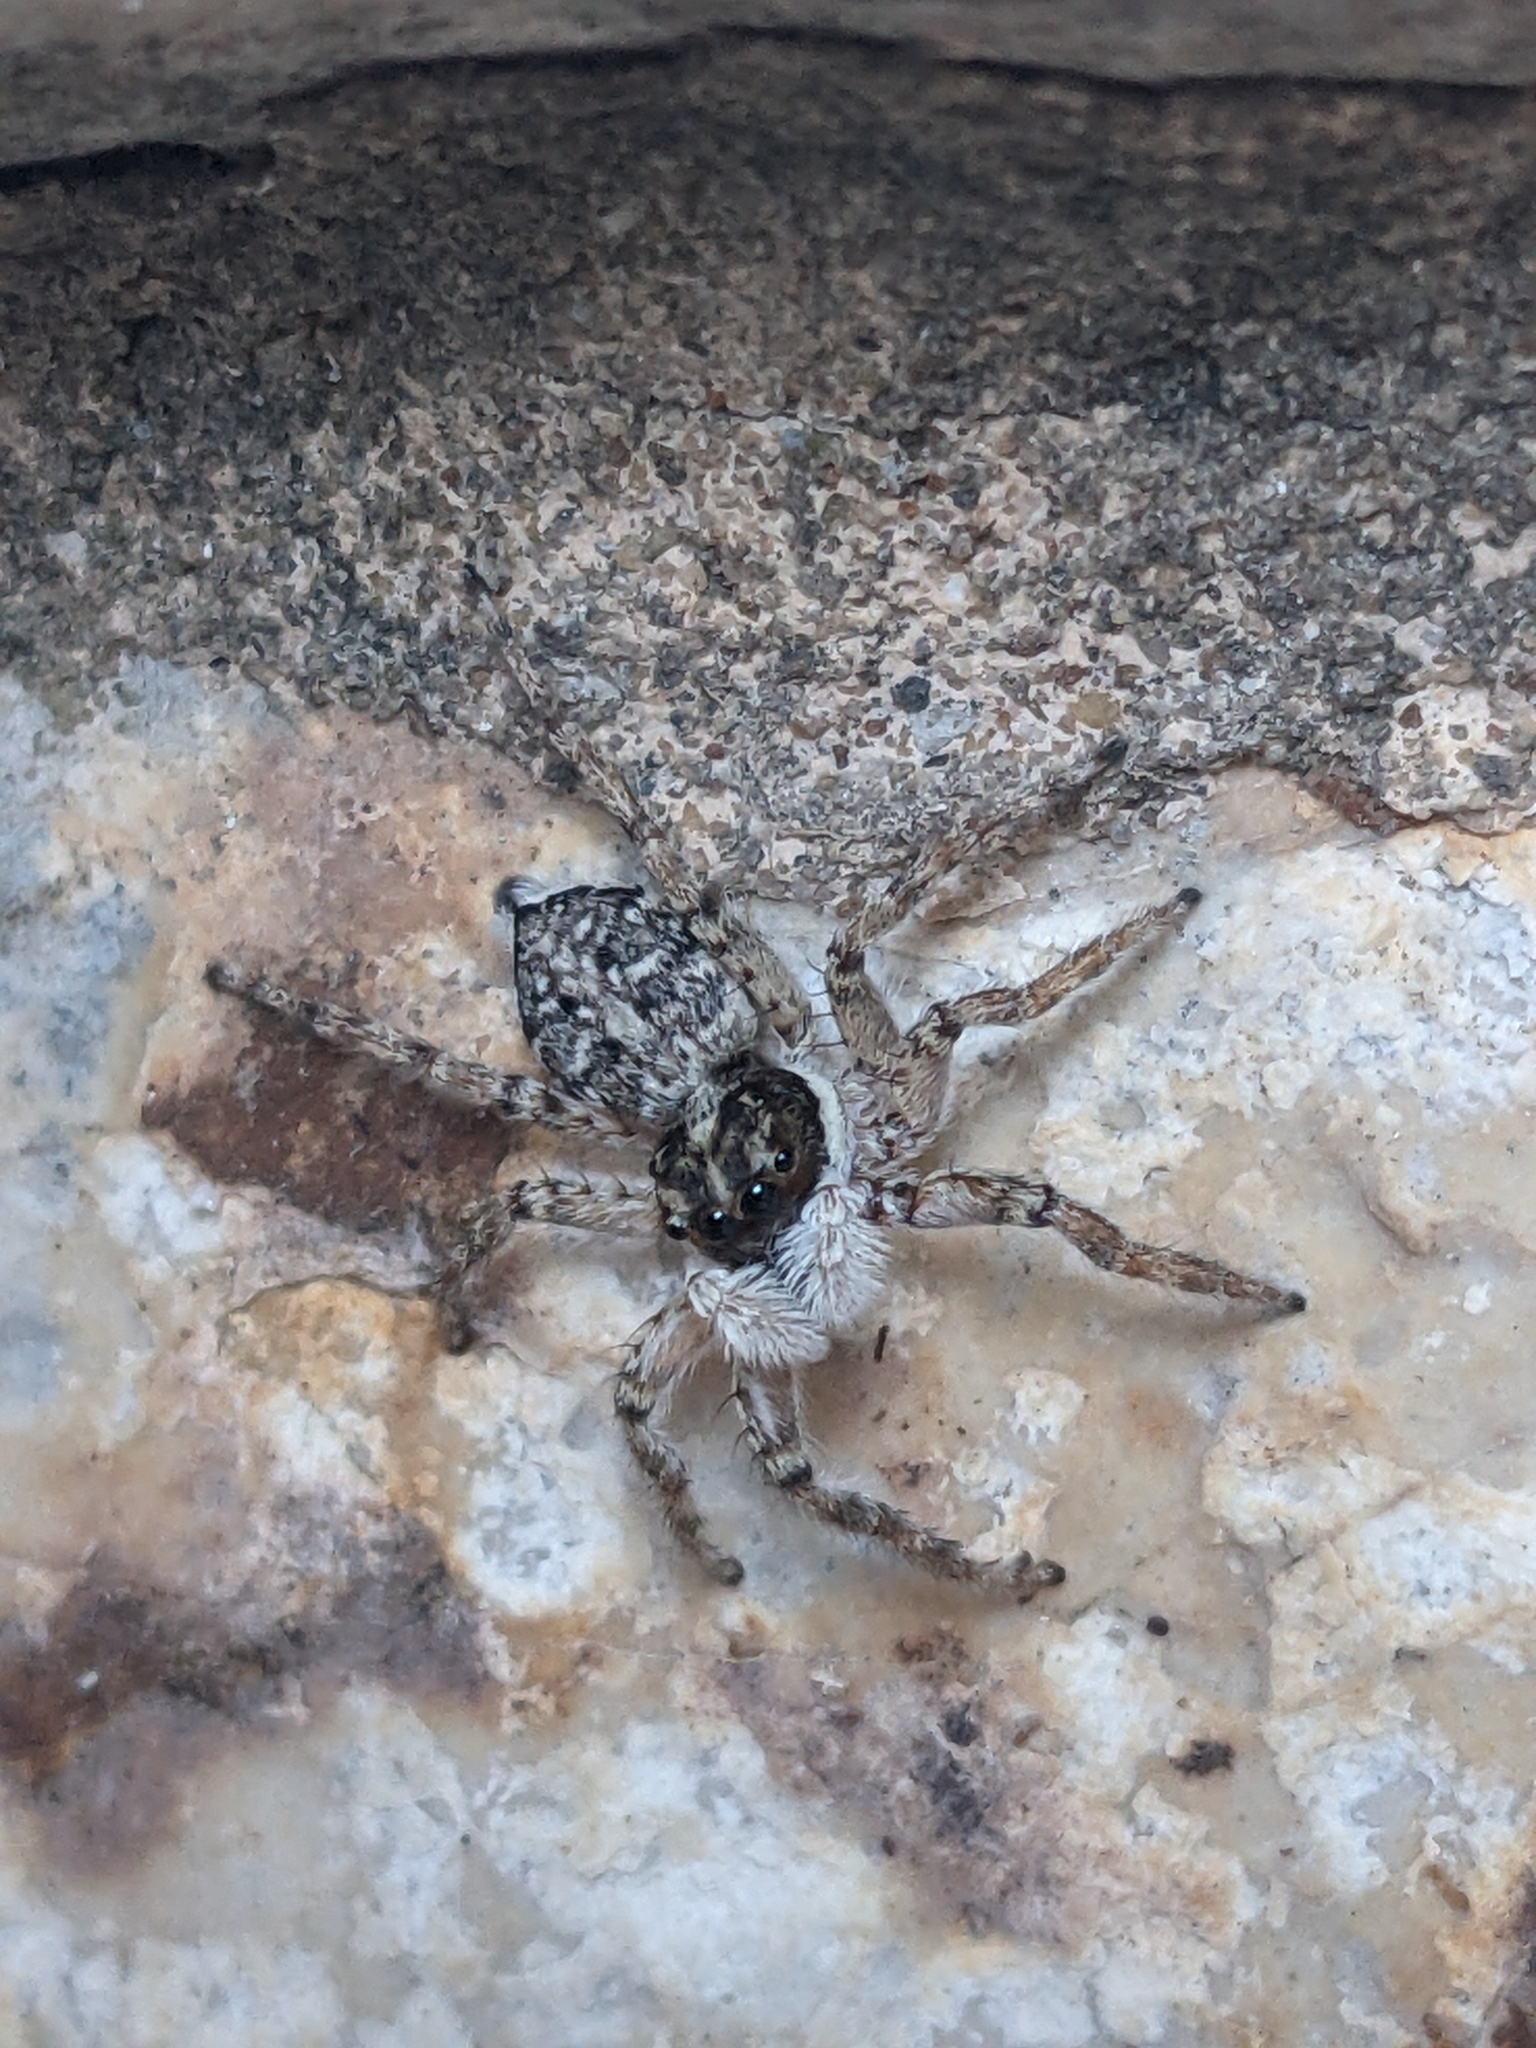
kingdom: Animalia
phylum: Arthropoda
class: Arachnida
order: Araneae
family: Salticidae
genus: Menemerus
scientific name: Menemerus semilimbatus
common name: Jumping spider
